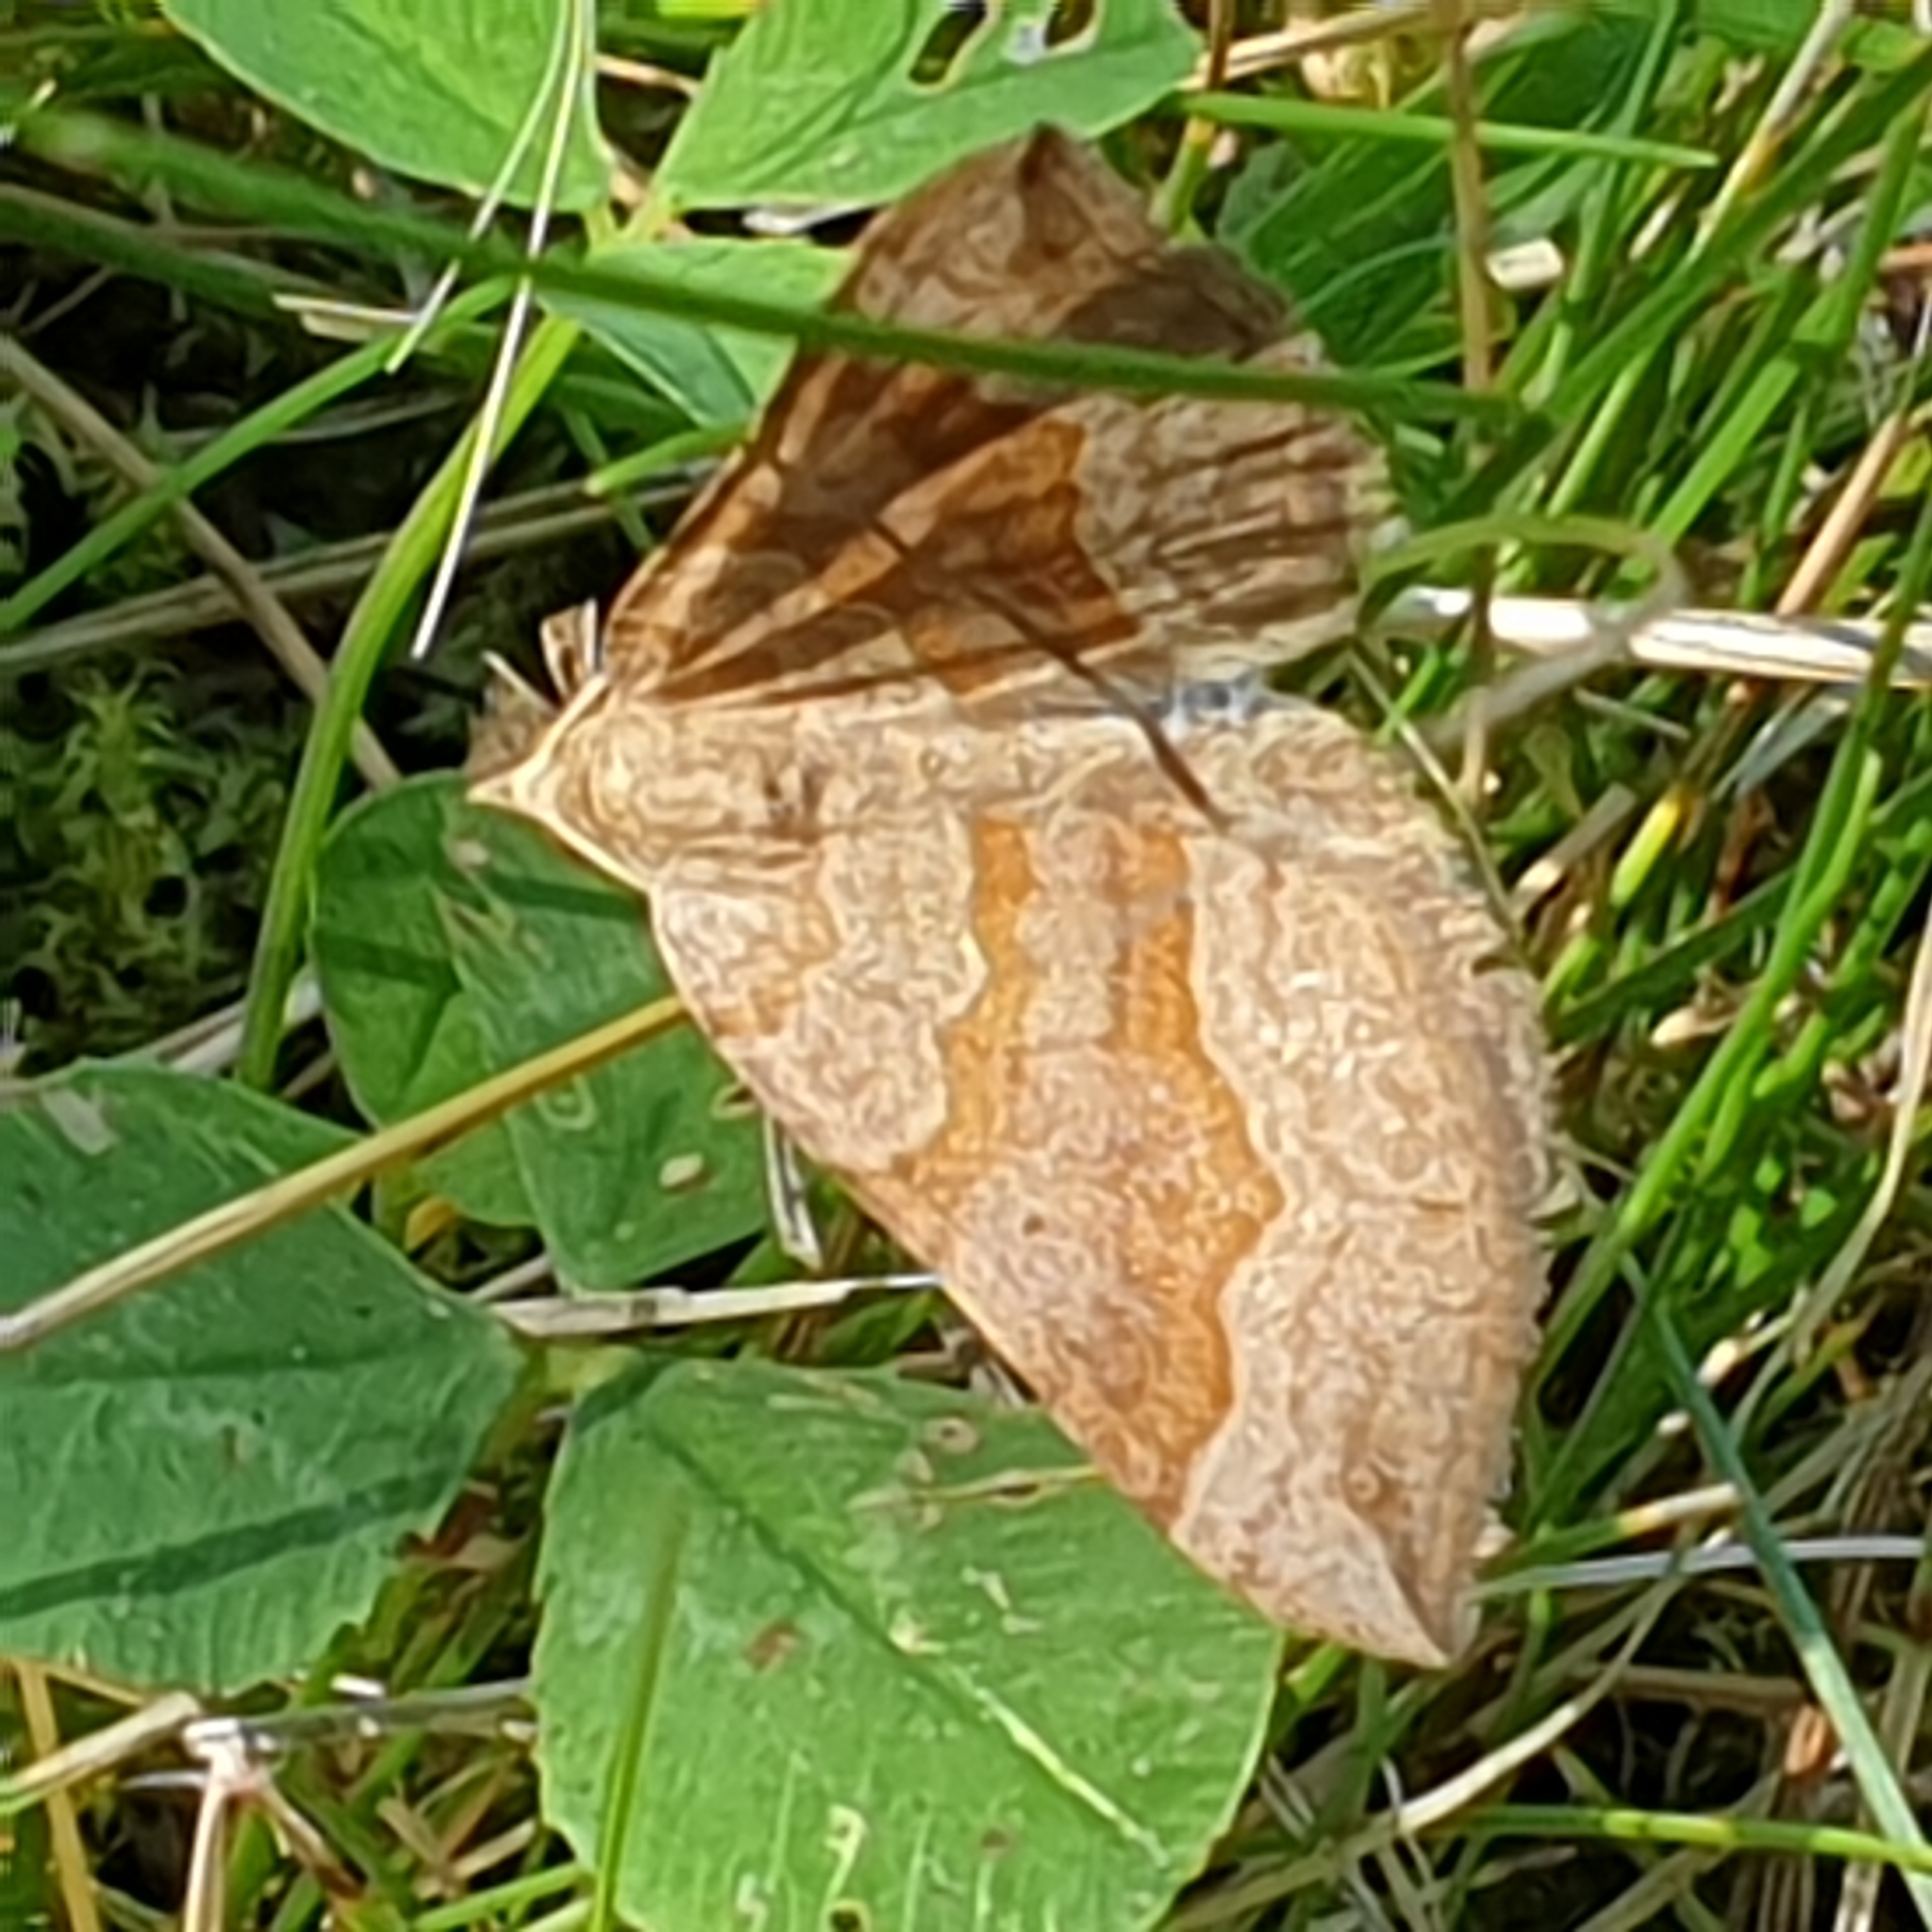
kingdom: Animalia
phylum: Arthropoda
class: Insecta
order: Lepidoptera
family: Geometridae
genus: Scotopteryx
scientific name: Scotopteryx chenopodiata
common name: Shaded broad-bar
